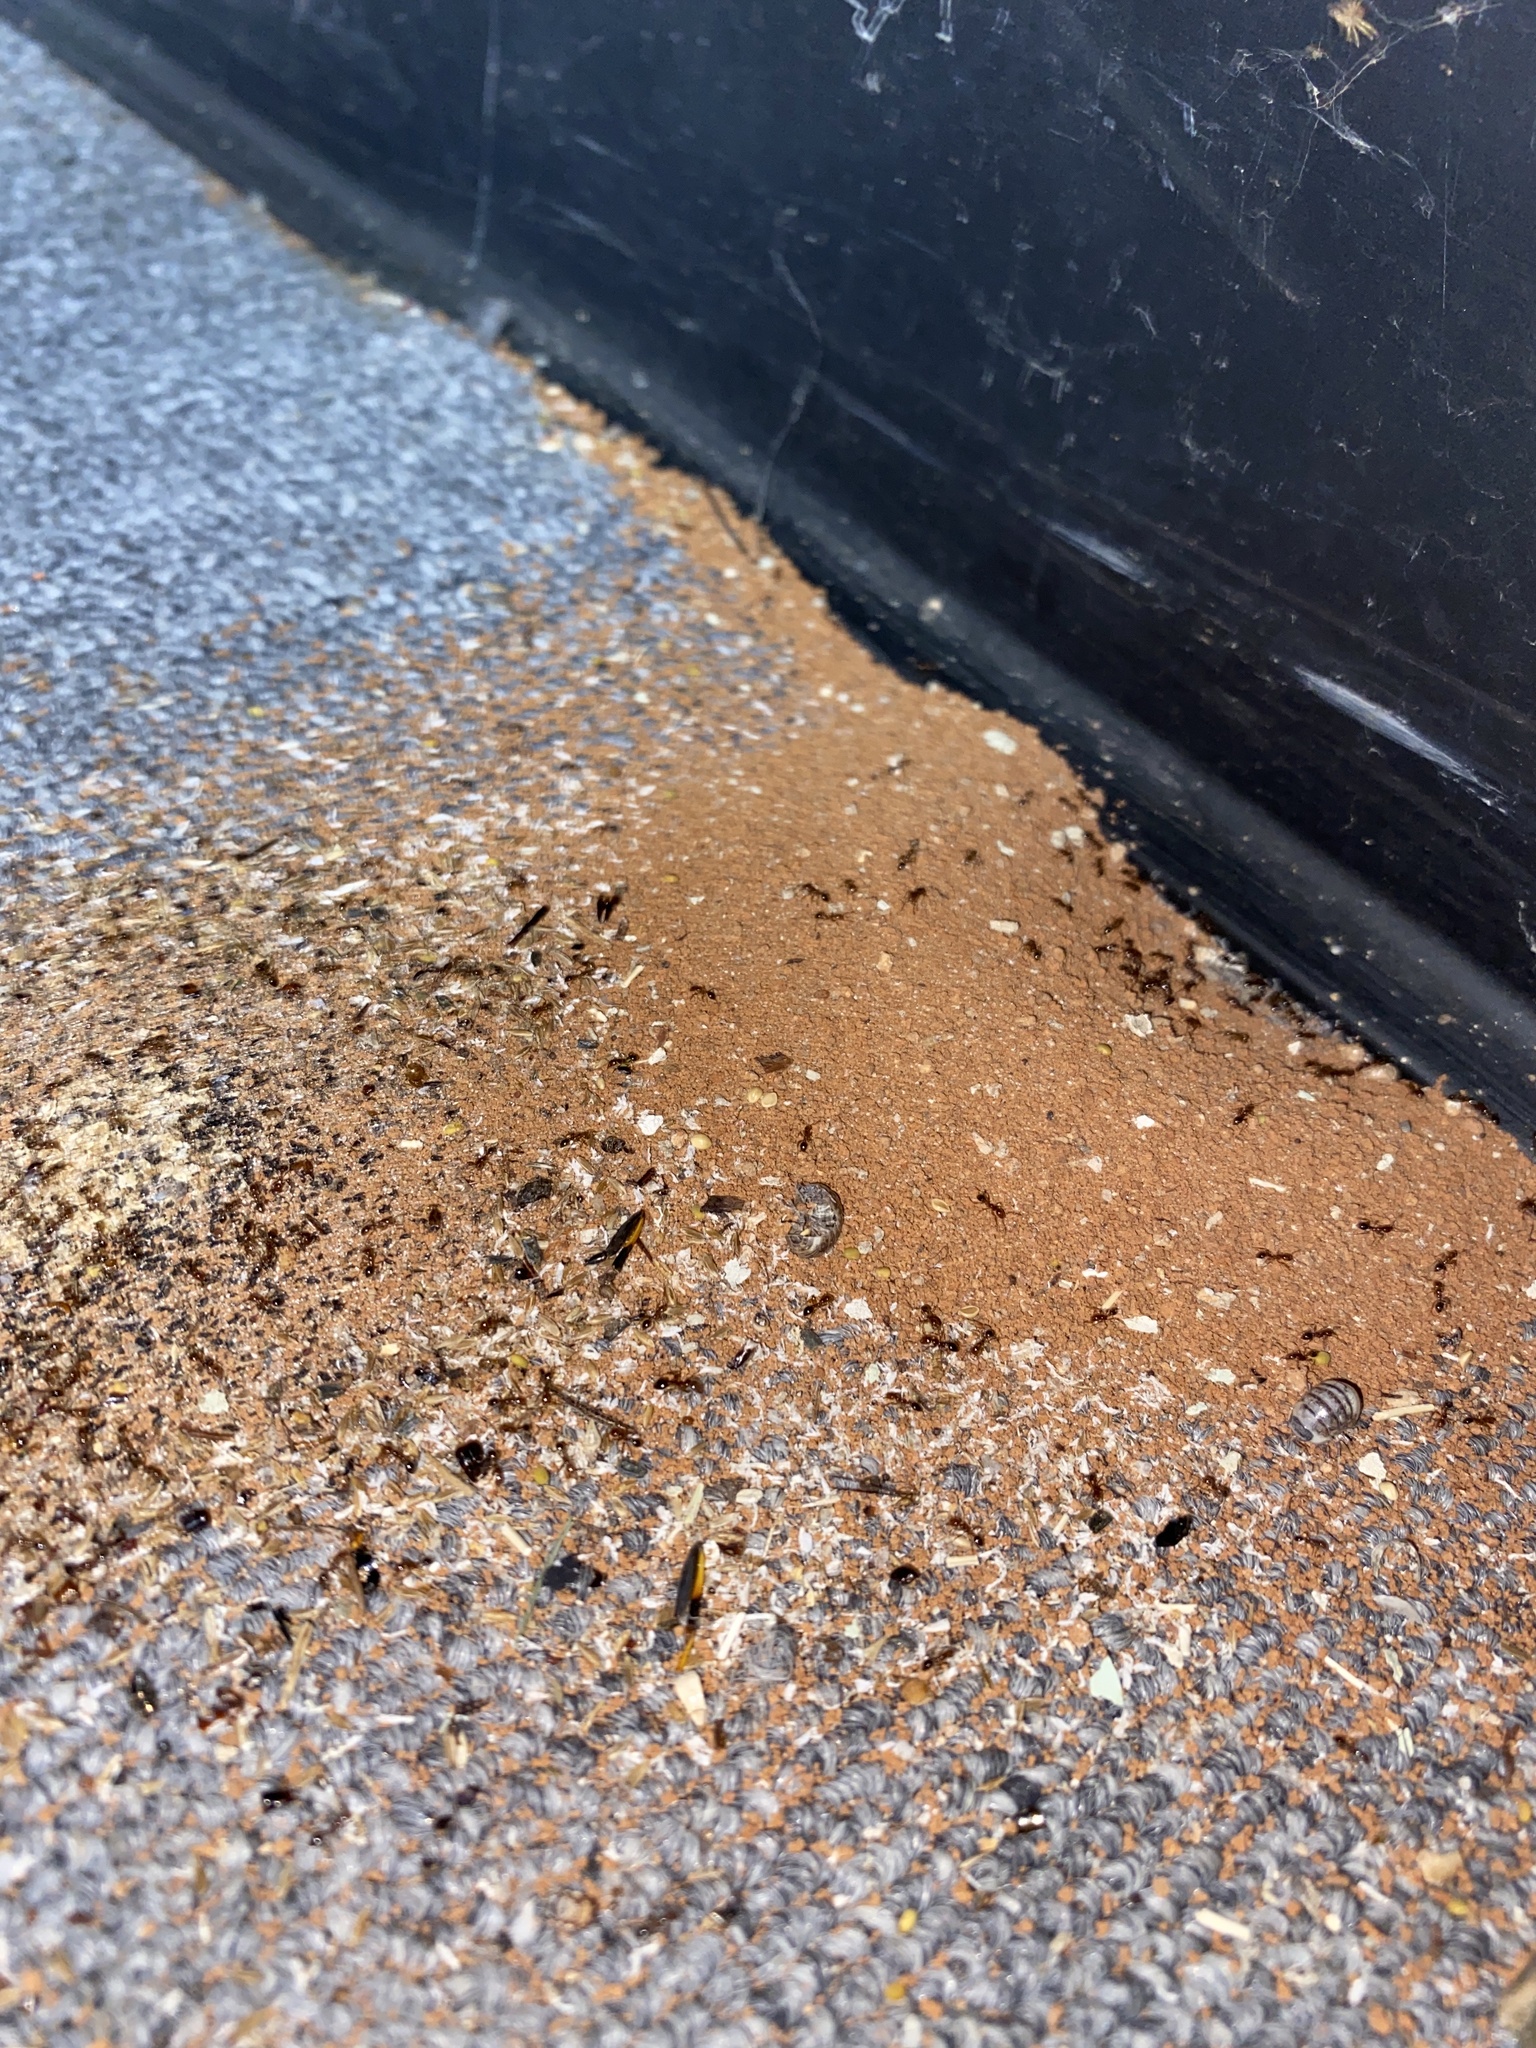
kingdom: Animalia
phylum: Arthropoda
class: Insecta
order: Hymenoptera
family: Formicidae
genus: Solenopsis
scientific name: Solenopsis invicta
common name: Red imported fire ant
